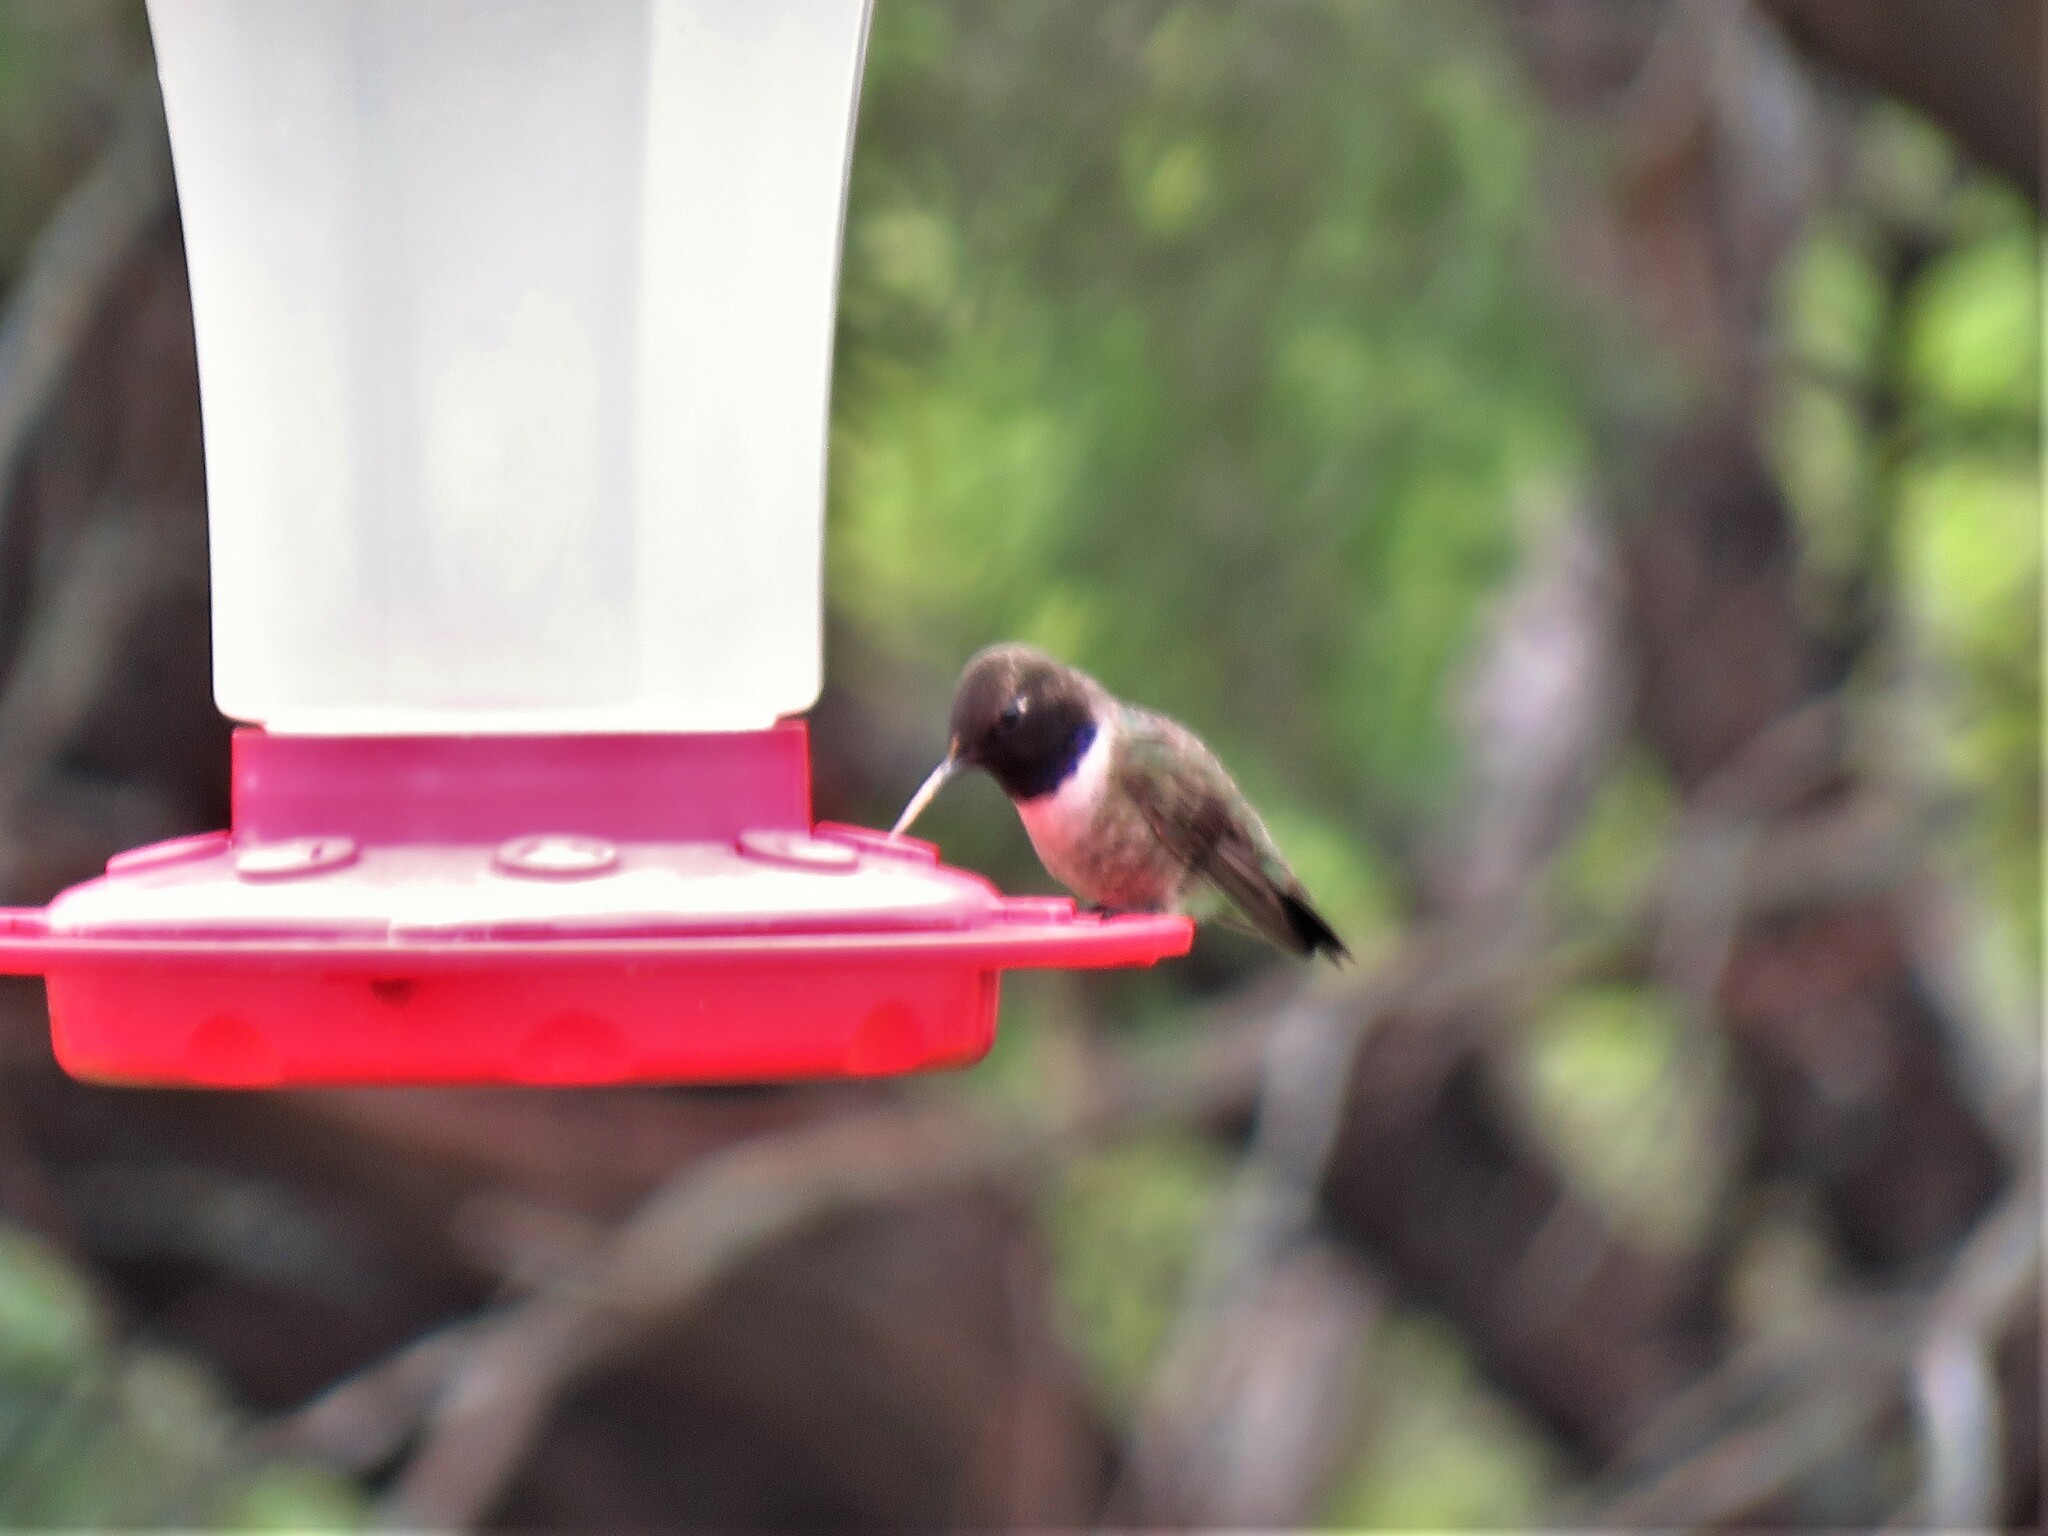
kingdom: Animalia
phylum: Chordata
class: Aves
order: Apodiformes
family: Trochilidae
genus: Archilochus
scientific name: Archilochus alexandri
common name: Black-chinned hummingbird
